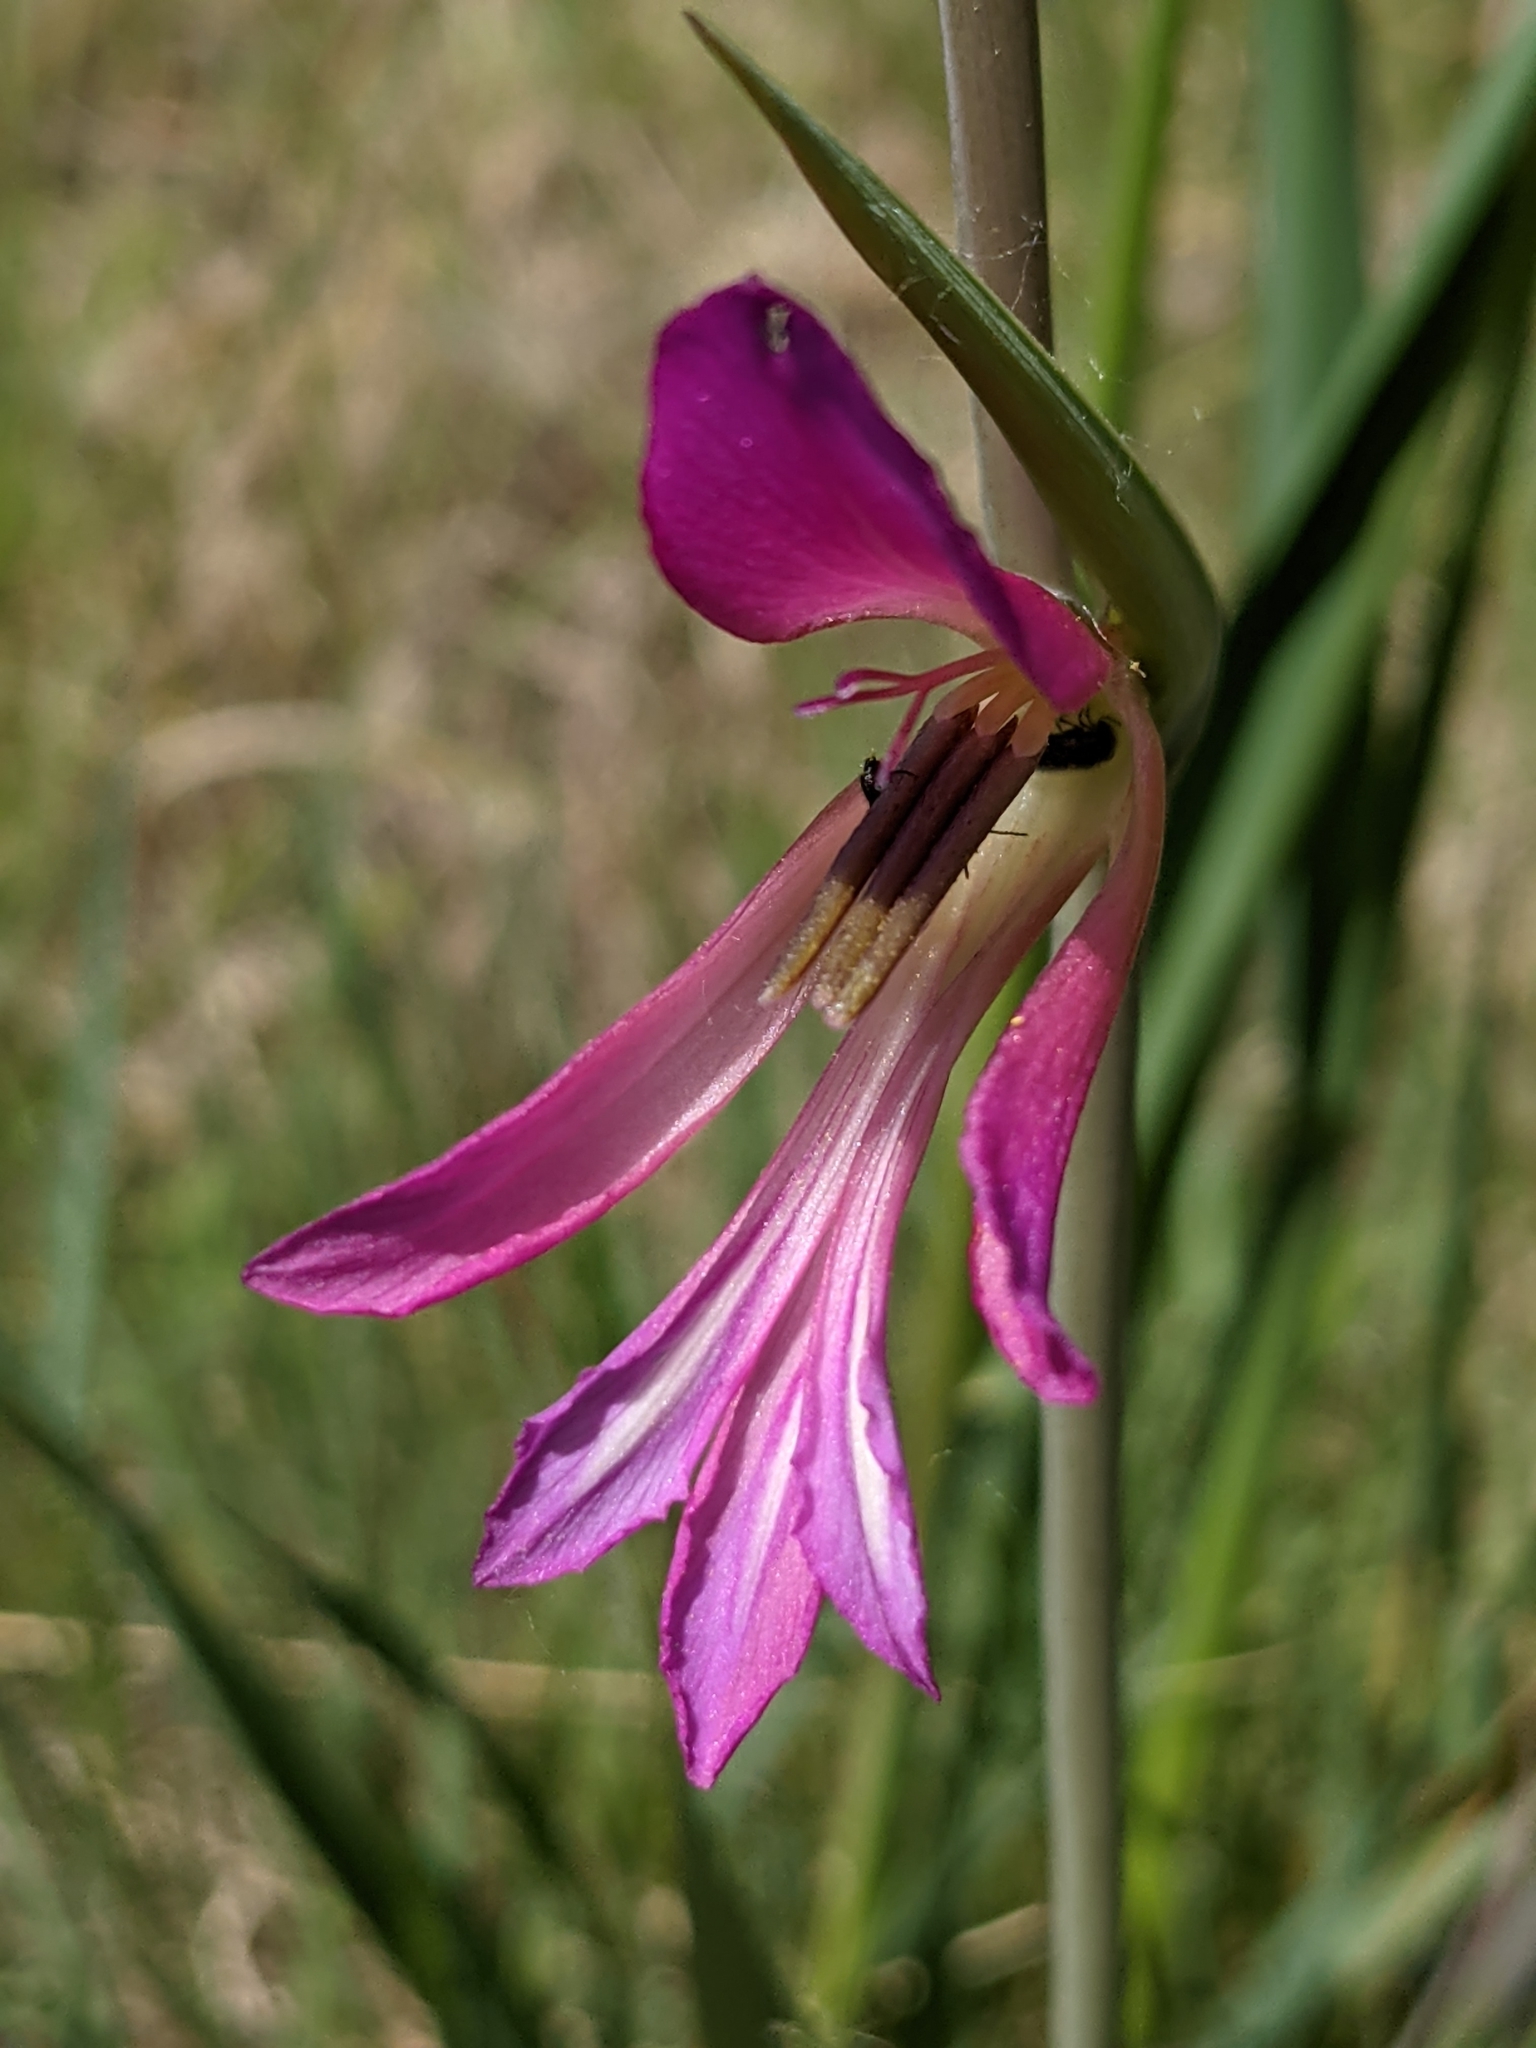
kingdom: Plantae
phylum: Tracheophyta
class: Liliopsida
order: Asparagales
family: Iridaceae
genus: Gladiolus
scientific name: Gladiolus italicus
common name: Field gladiolus
